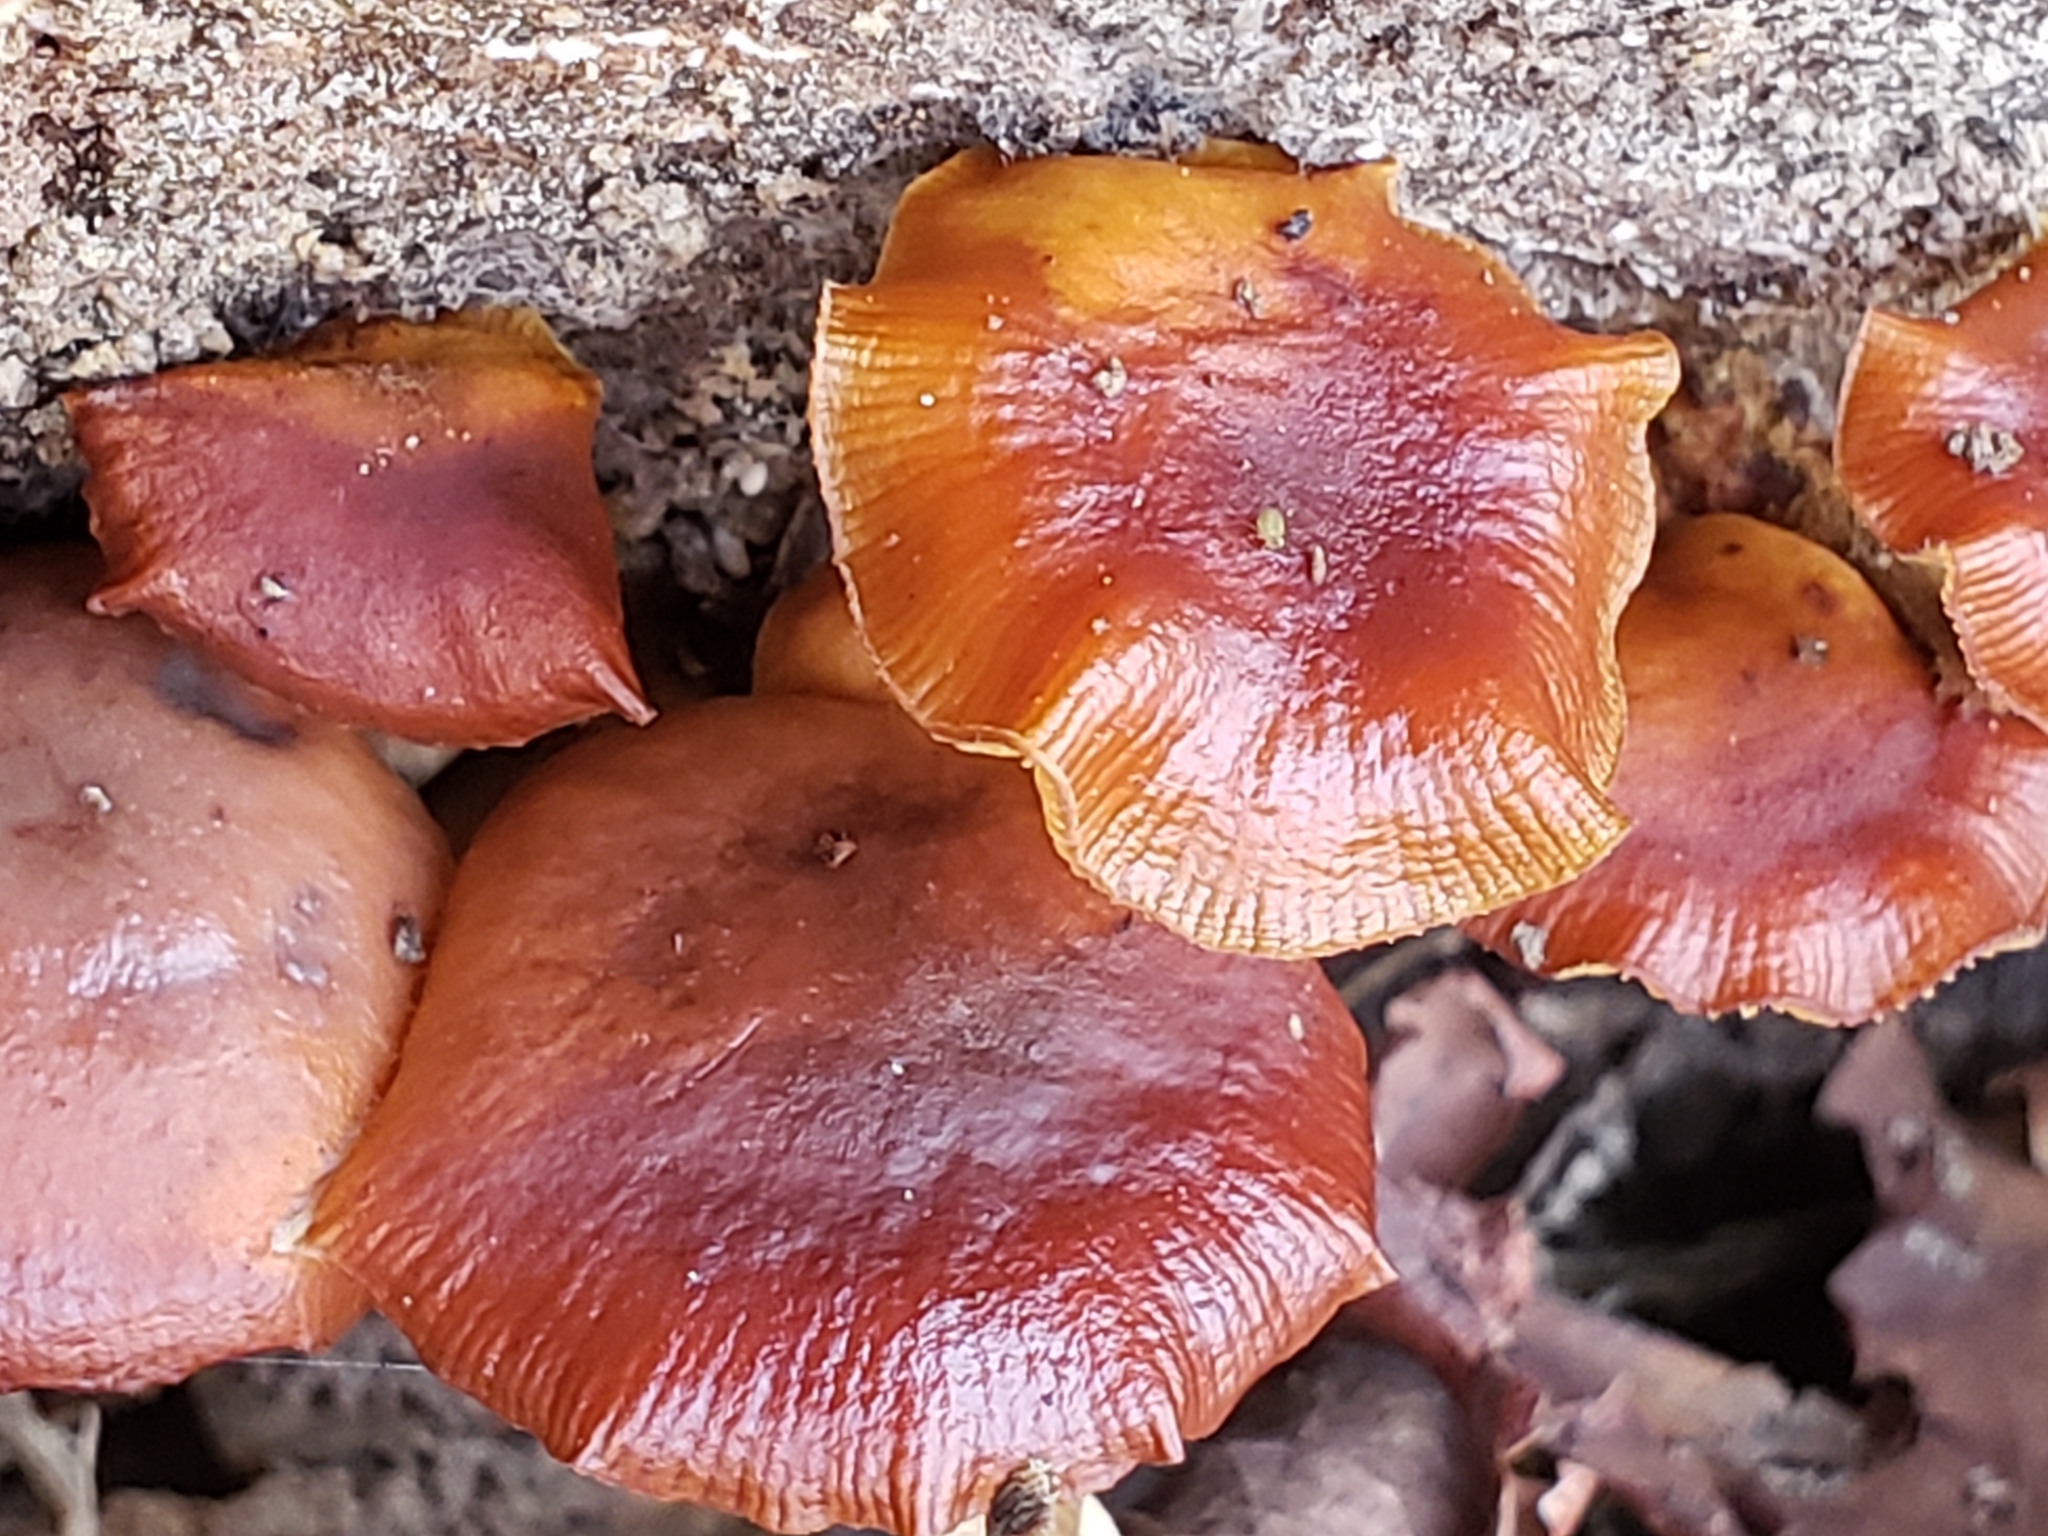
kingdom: Fungi
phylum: Basidiomycota
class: Agaricomycetes
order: Agaricales
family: Physalacriaceae
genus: Flammulina
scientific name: Flammulina velutipes
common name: Velvet shank
